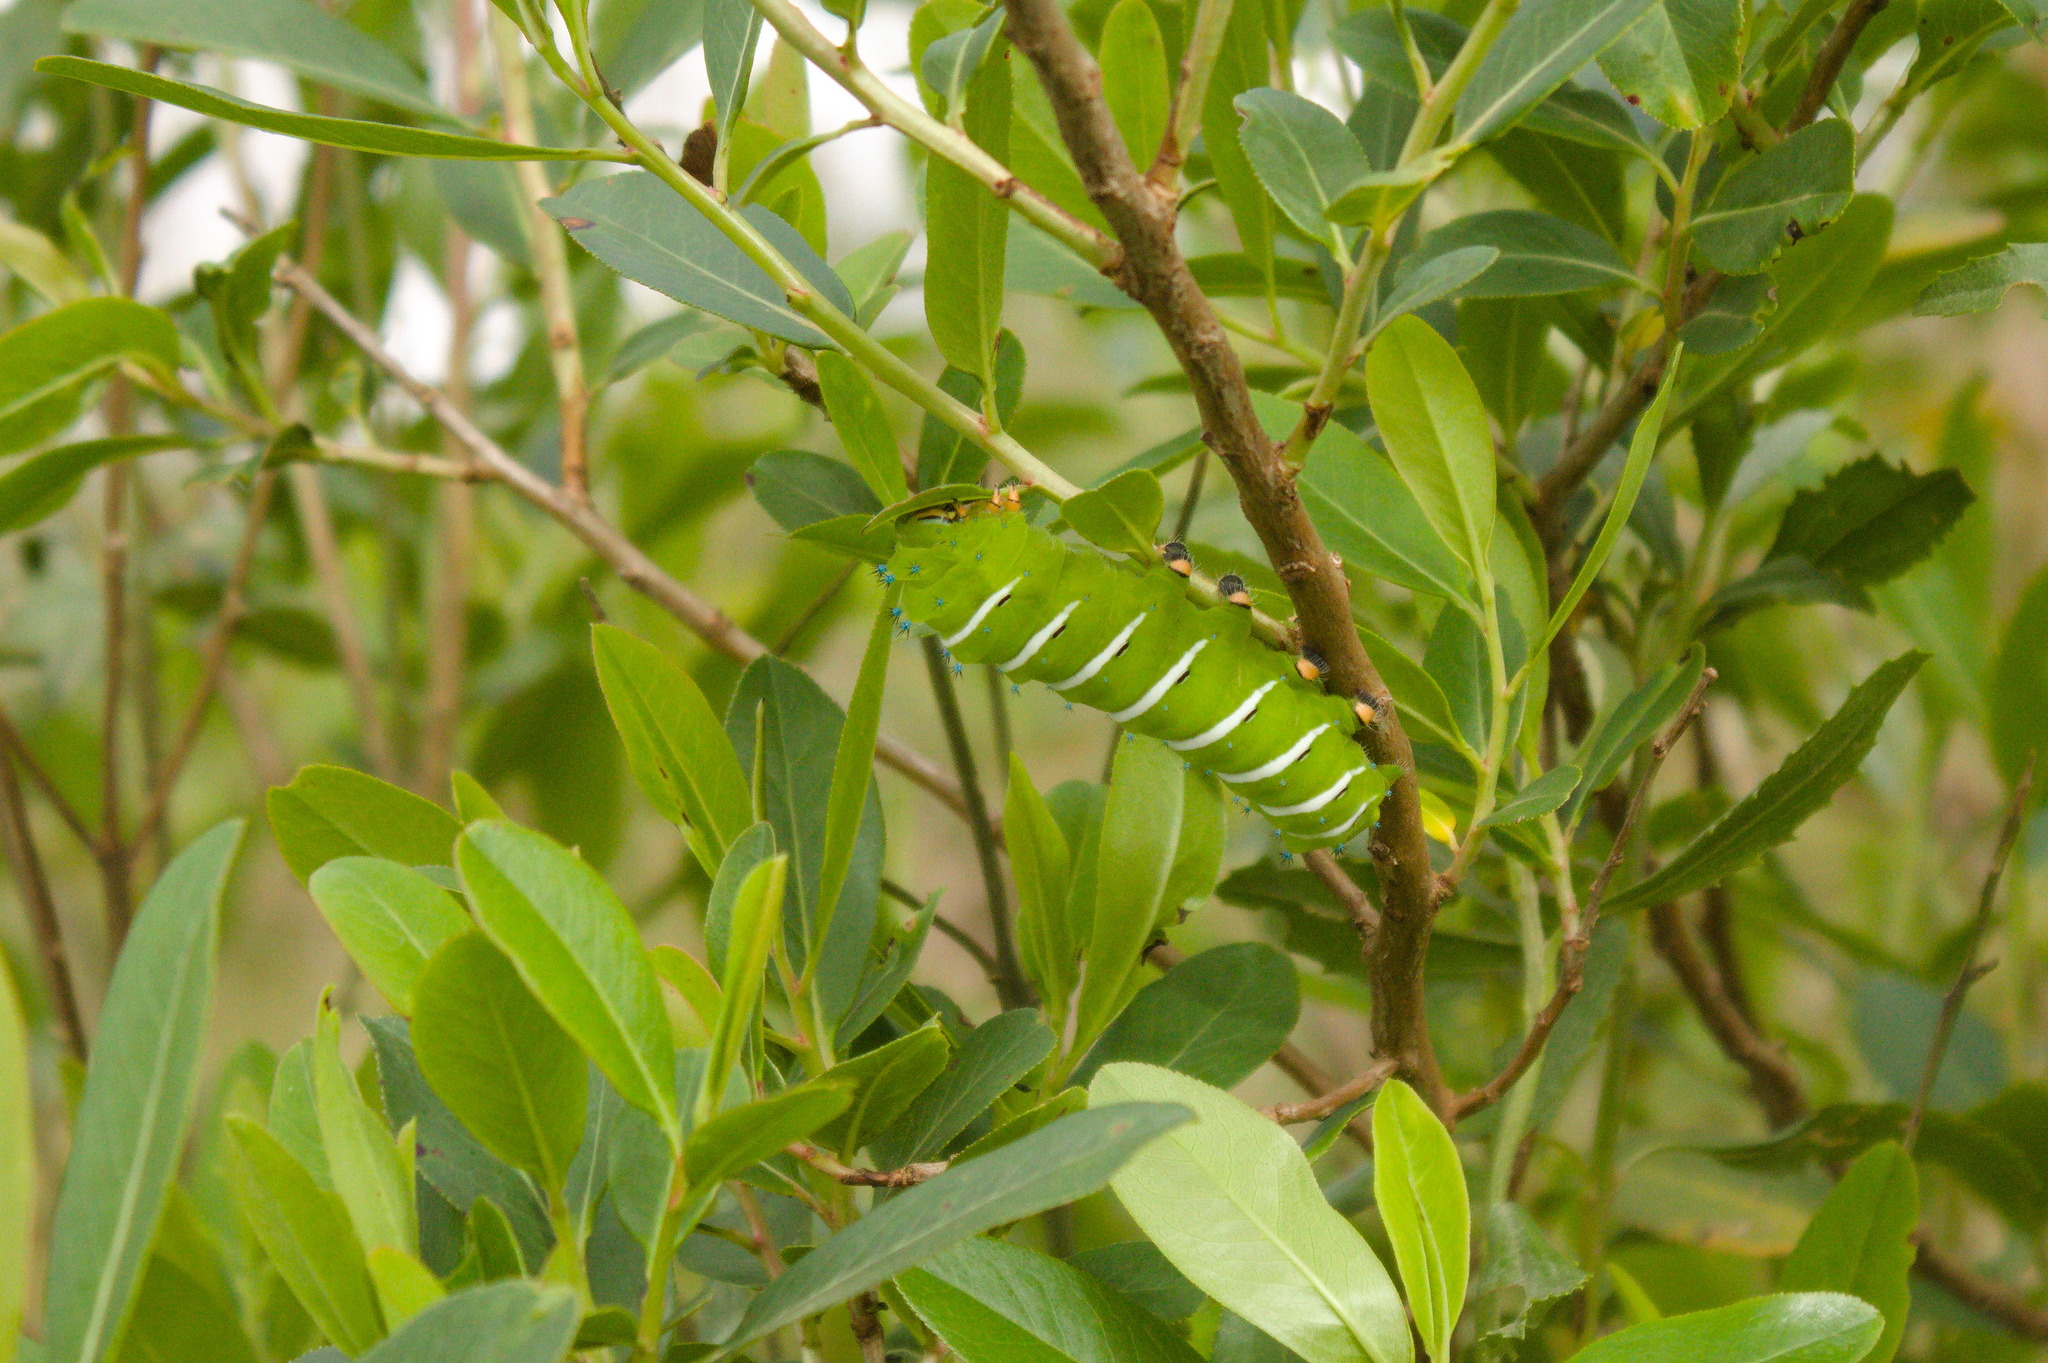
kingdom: Animalia
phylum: Arthropoda
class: Insecta
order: Lepidoptera
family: Saturniidae
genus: Rothschildia
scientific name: Rothschildia jacobaeae
